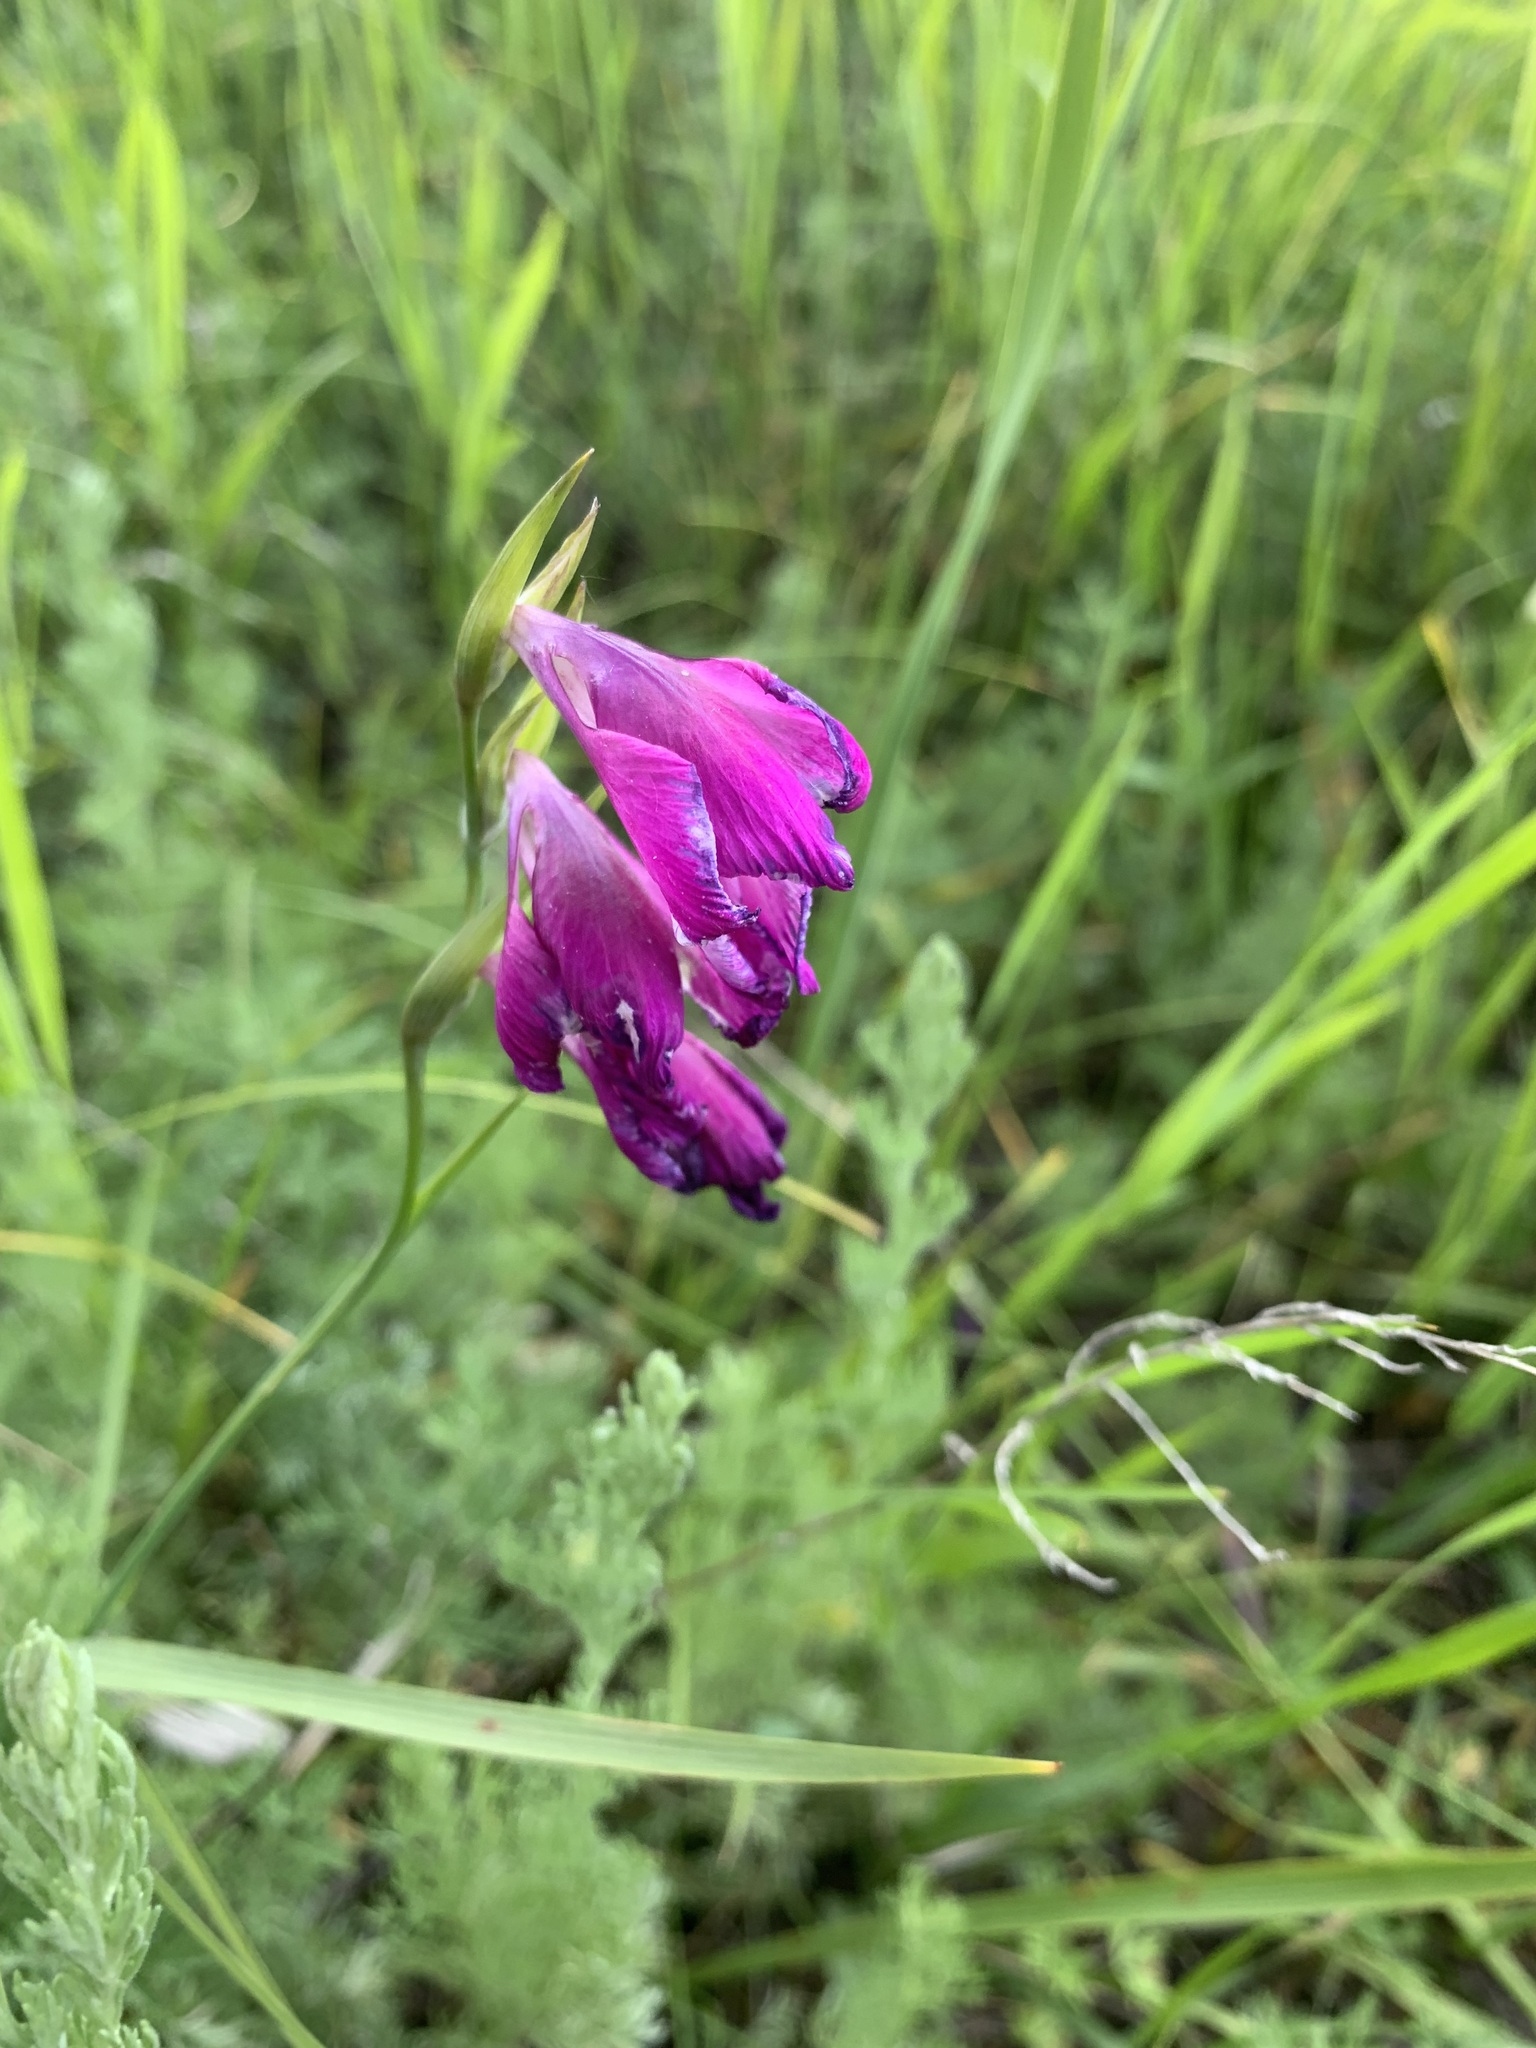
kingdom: Plantae
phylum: Tracheophyta
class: Liliopsida
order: Asparagales
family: Iridaceae
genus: Gladiolus
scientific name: Gladiolus tenuis
